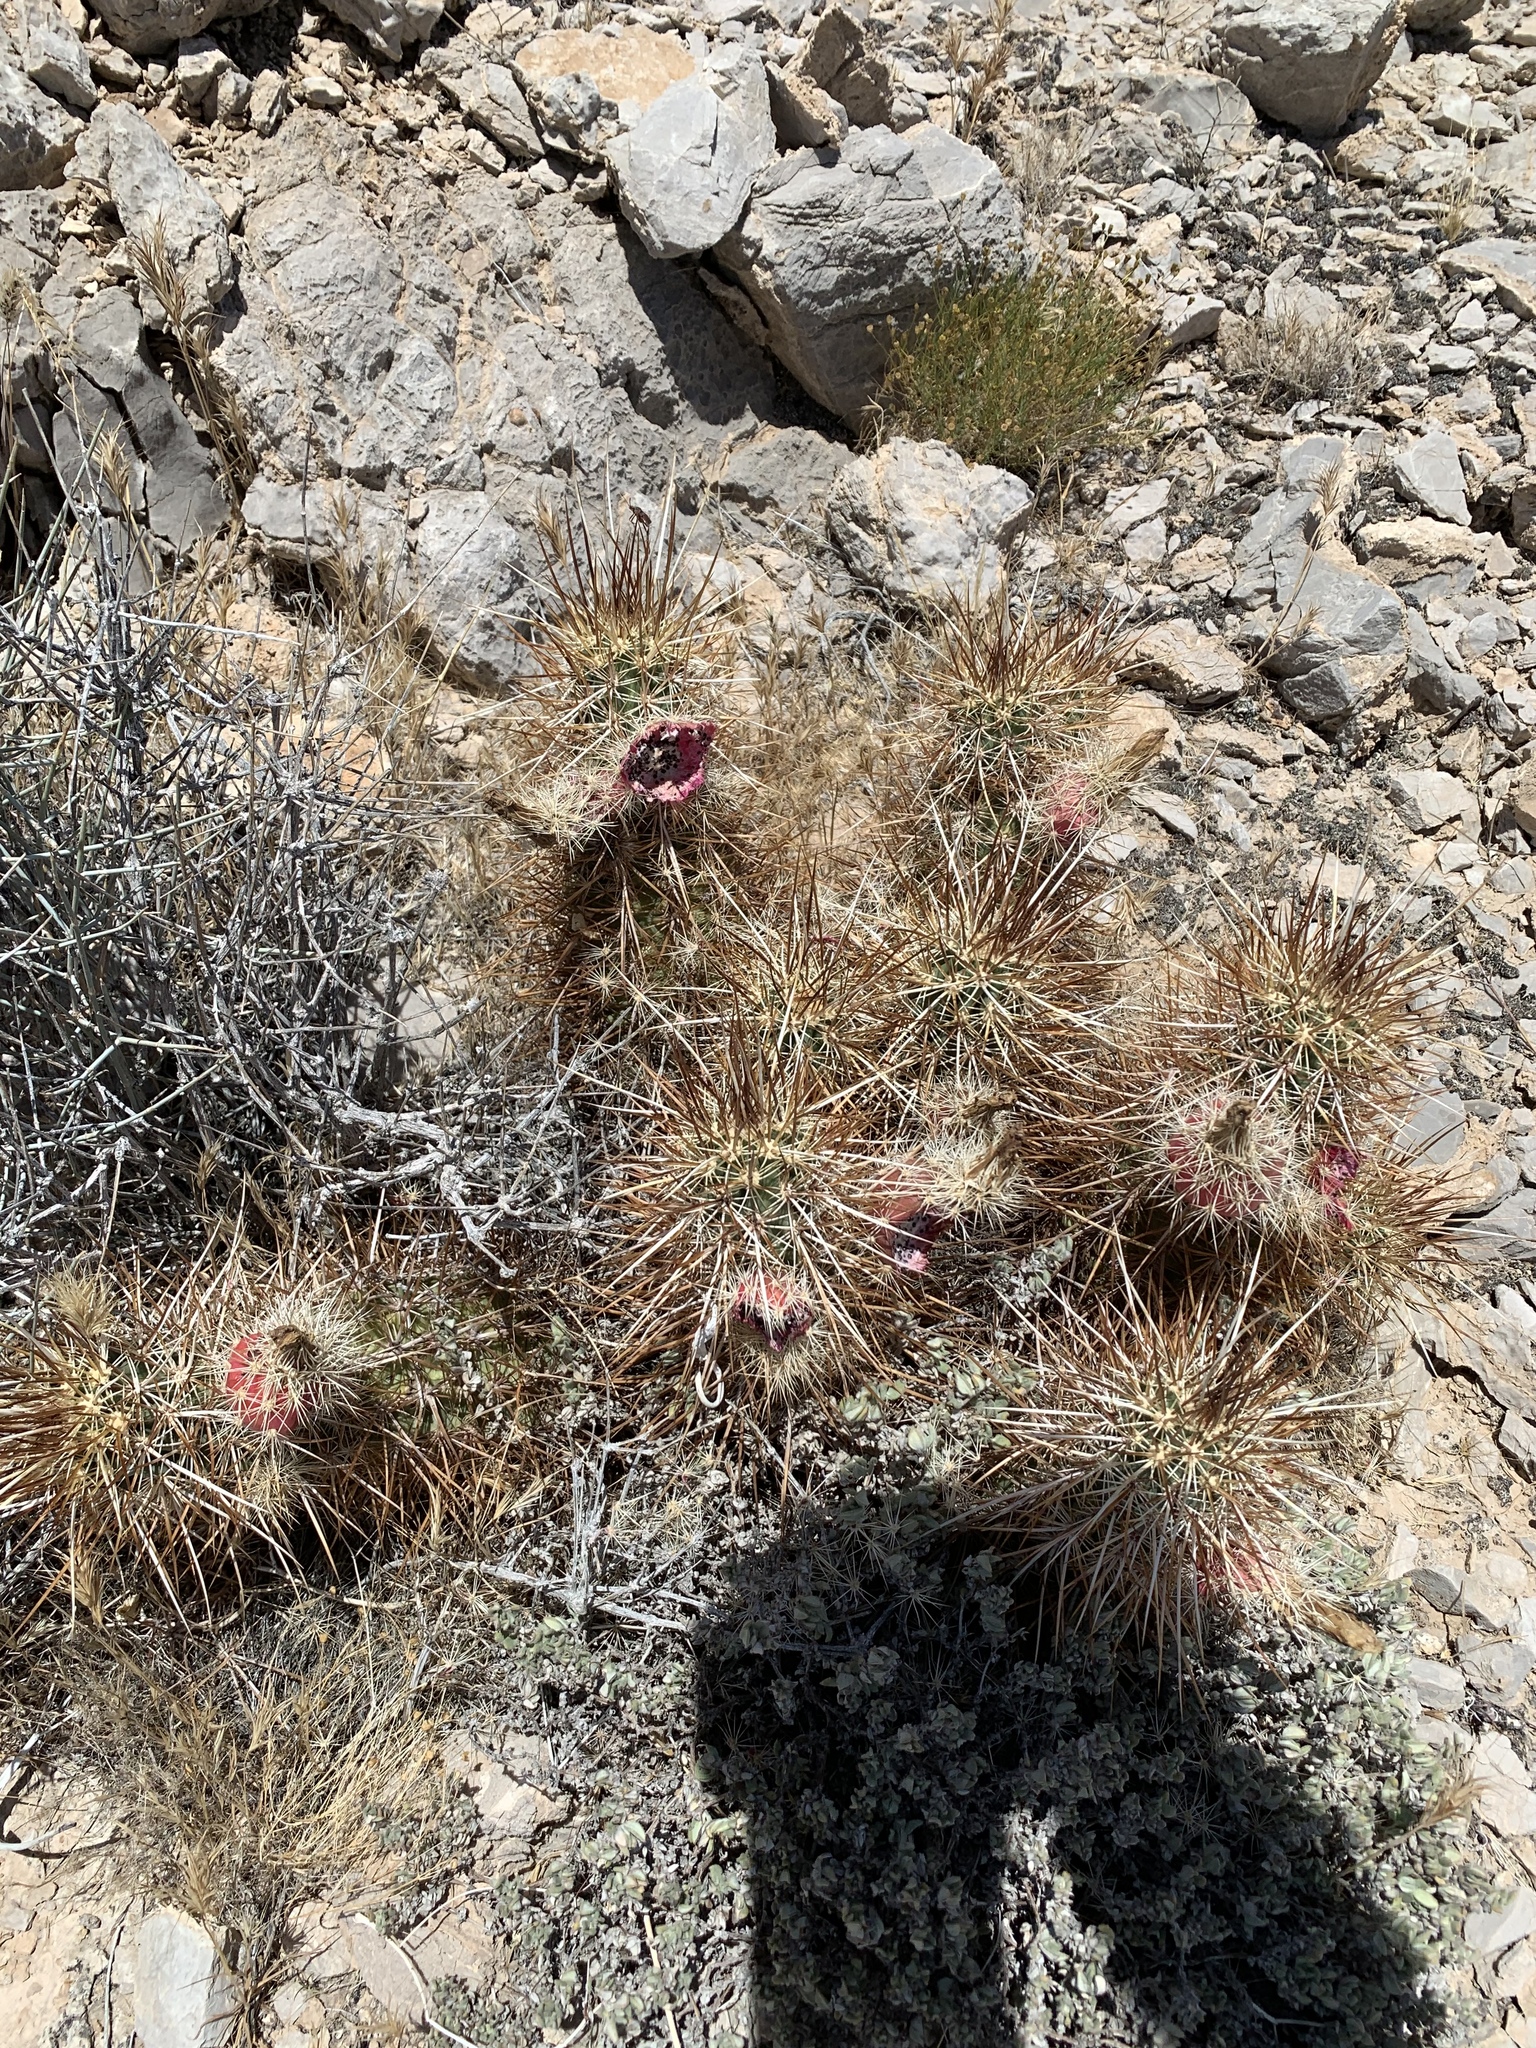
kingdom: Plantae
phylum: Tracheophyta
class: Magnoliopsida
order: Caryophyllales
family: Cactaceae
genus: Echinocereus
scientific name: Echinocereus engelmannii
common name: Engelmann's hedgehog cactus
